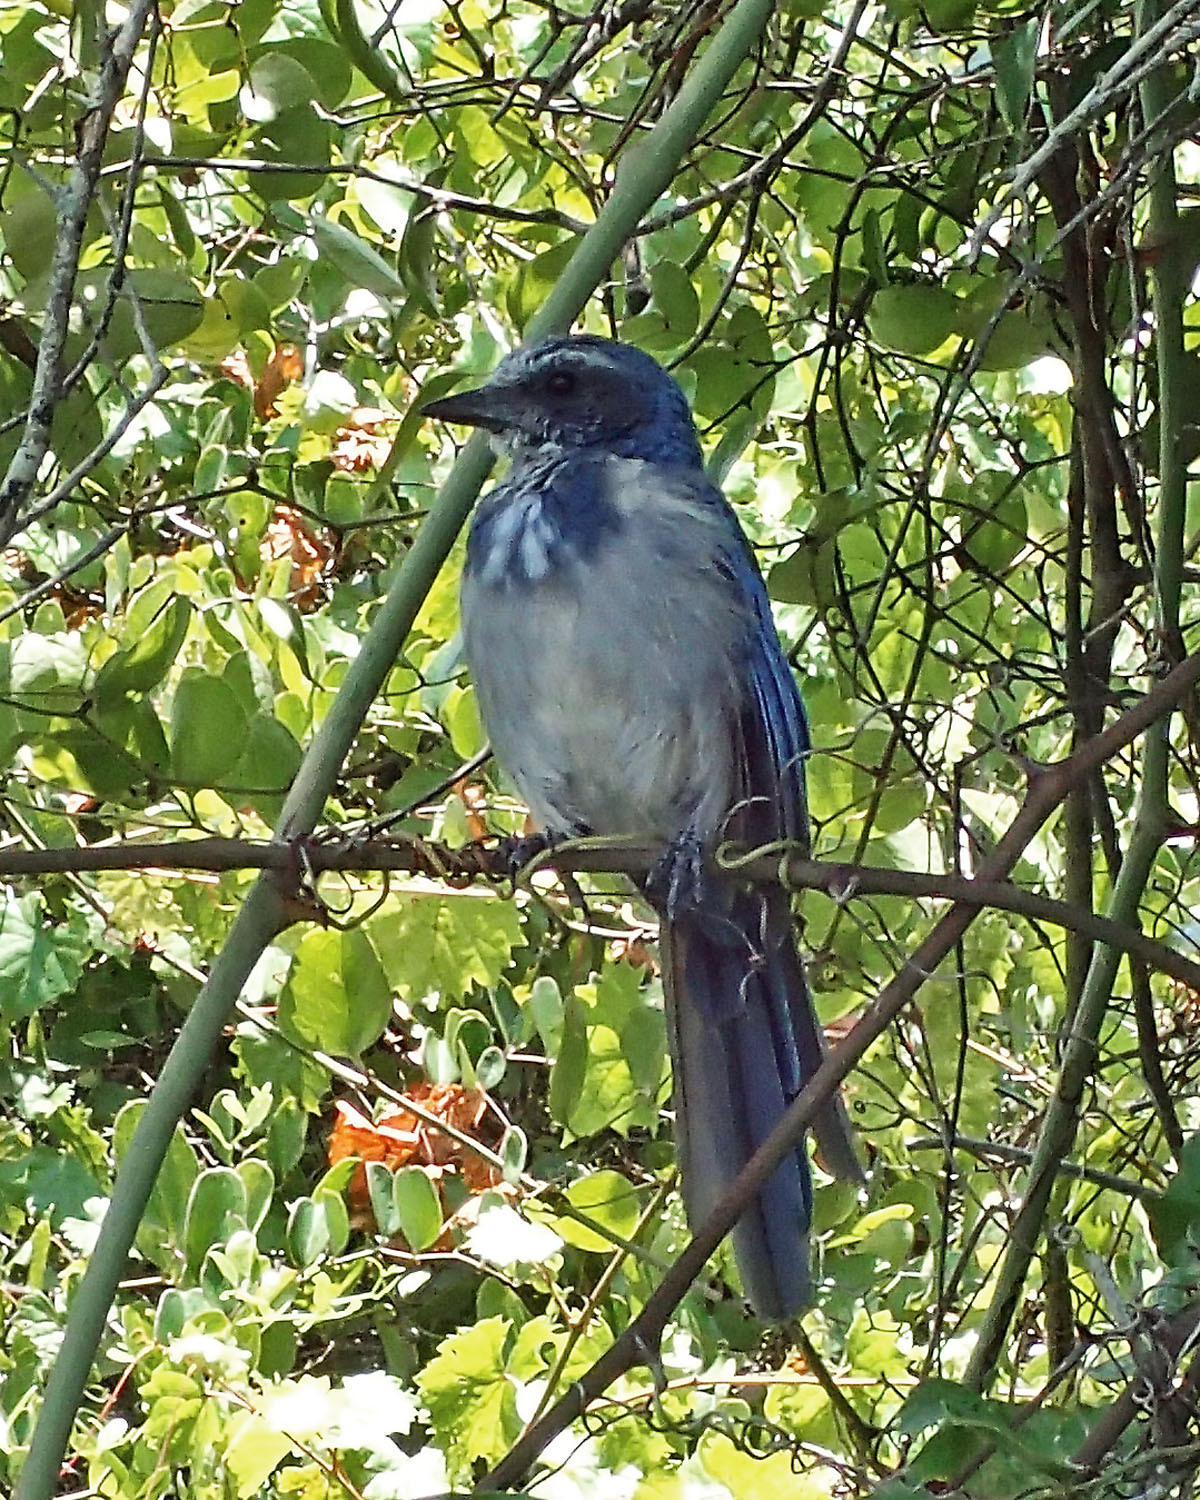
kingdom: Animalia
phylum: Chordata
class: Aves
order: Passeriformes
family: Corvidae
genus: Aphelocoma
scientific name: Aphelocoma coerulescens
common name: Florida scrub jay
